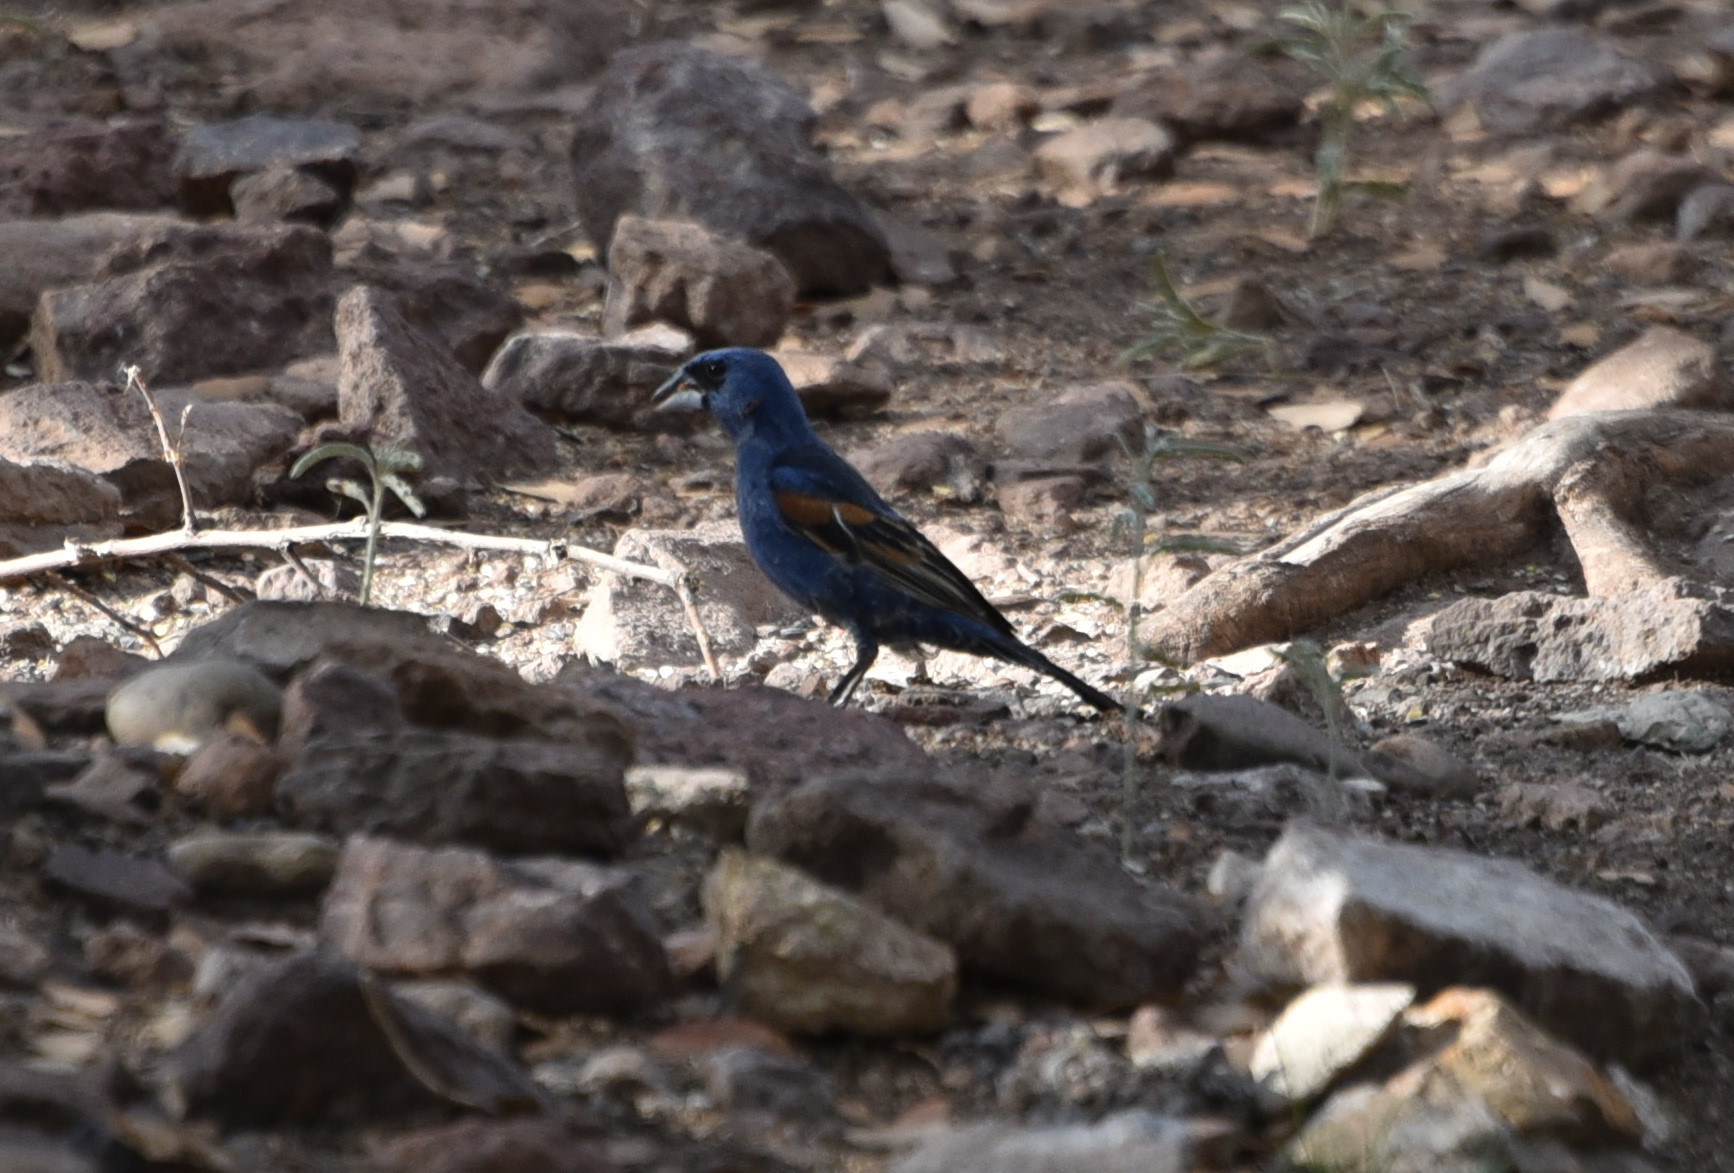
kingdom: Animalia
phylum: Chordata
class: Aves
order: Passeriformes
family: Cardinalidae
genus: Passerina
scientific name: Passerina caerulea
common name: Blue grosbeak
